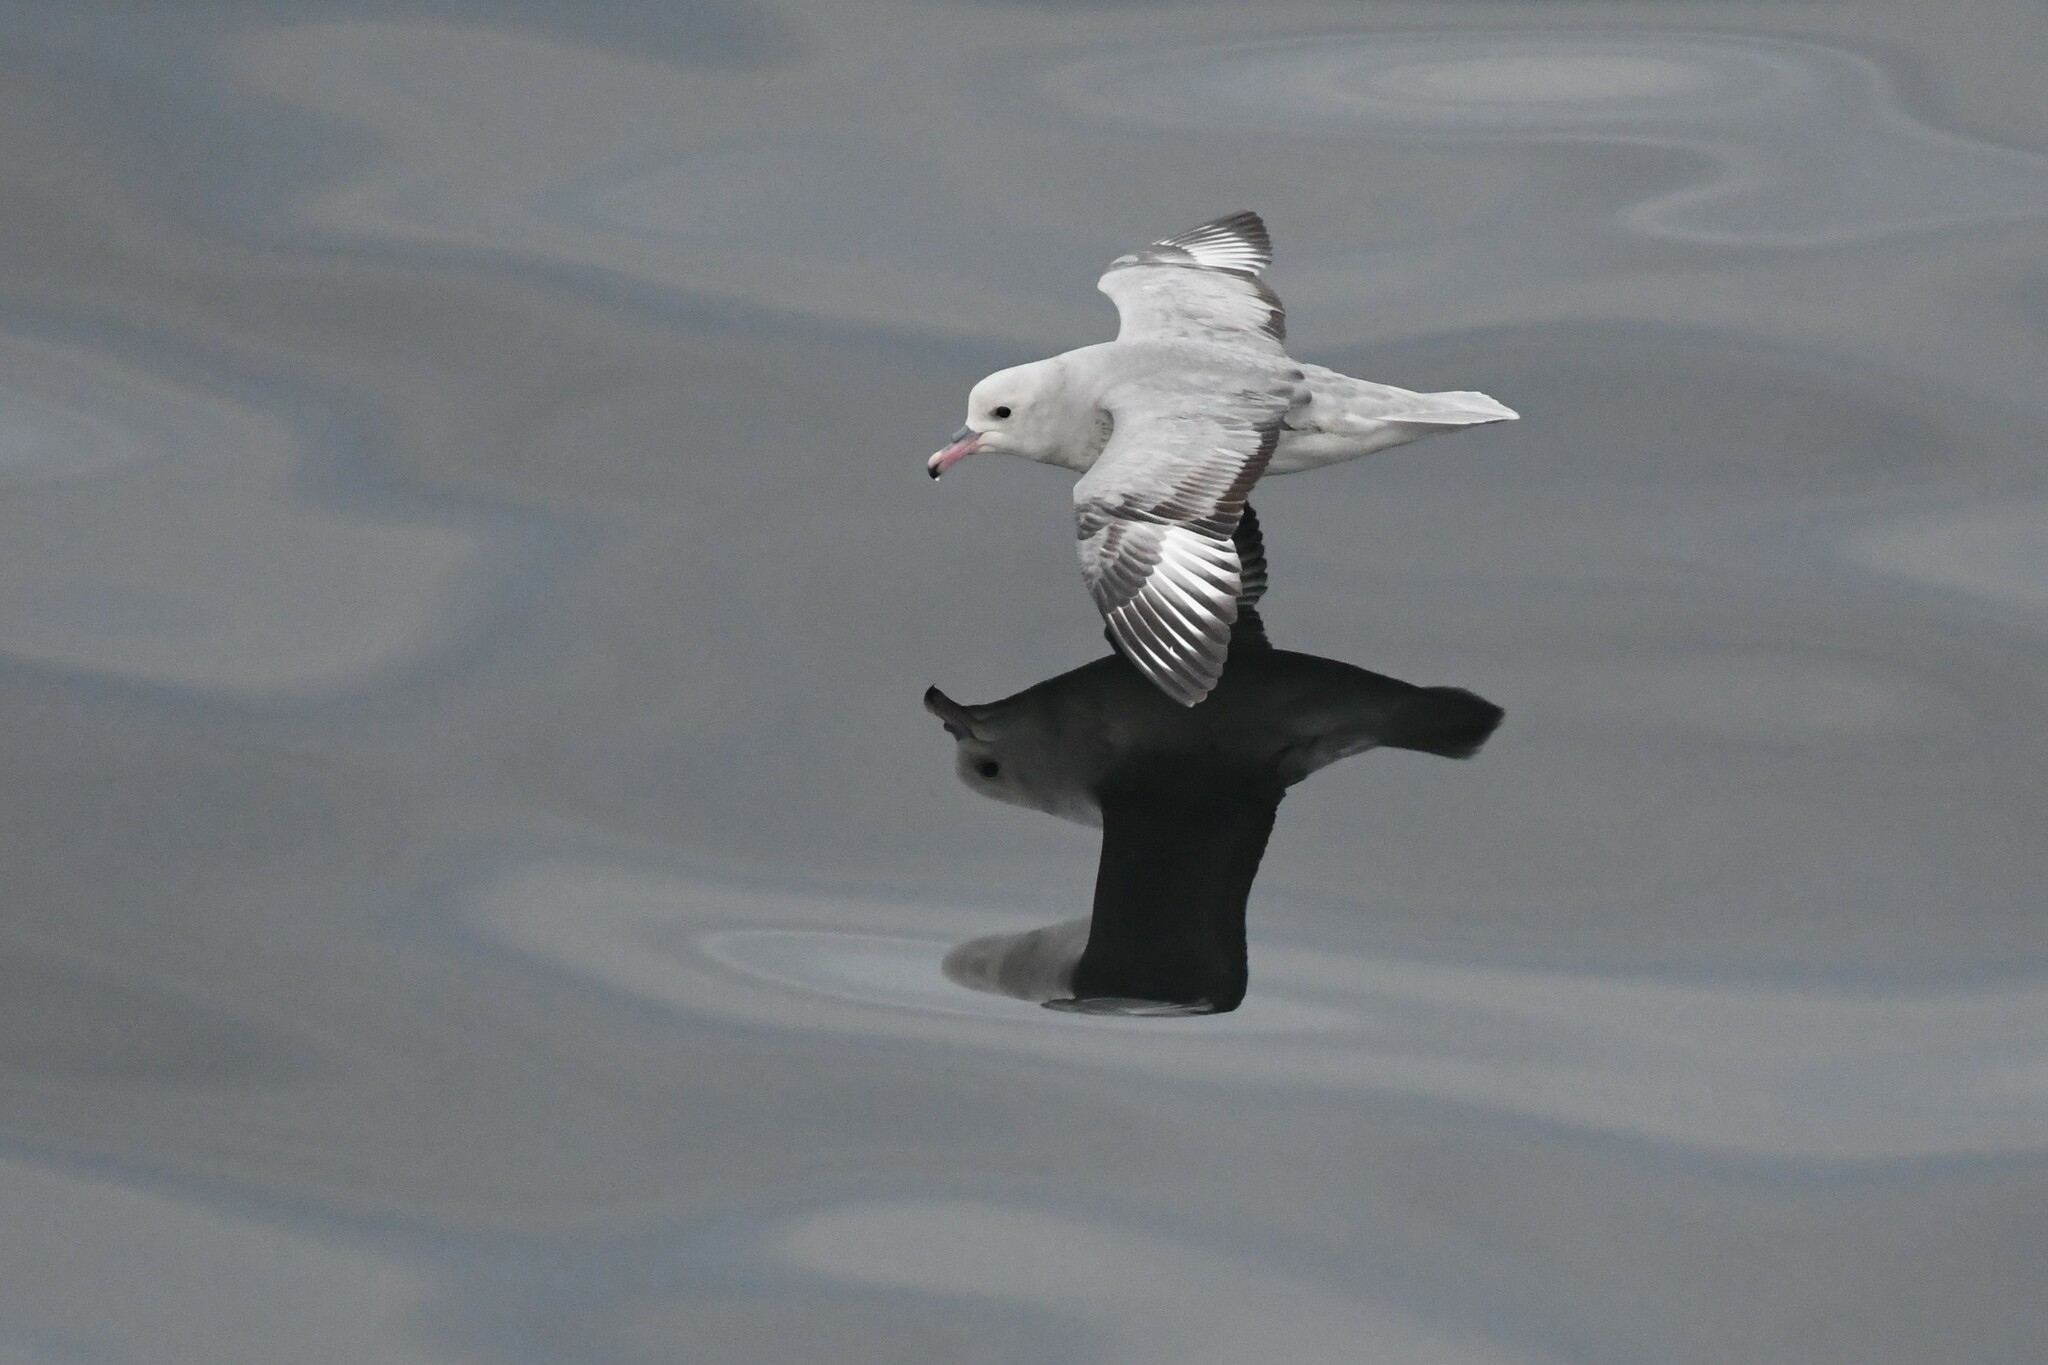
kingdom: Animalia
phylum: Chordata
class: Aves
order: Procellariiformes
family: Procellariidae
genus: Fulmarus
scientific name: Fulmarus glacialoides
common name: Southern fulmar
